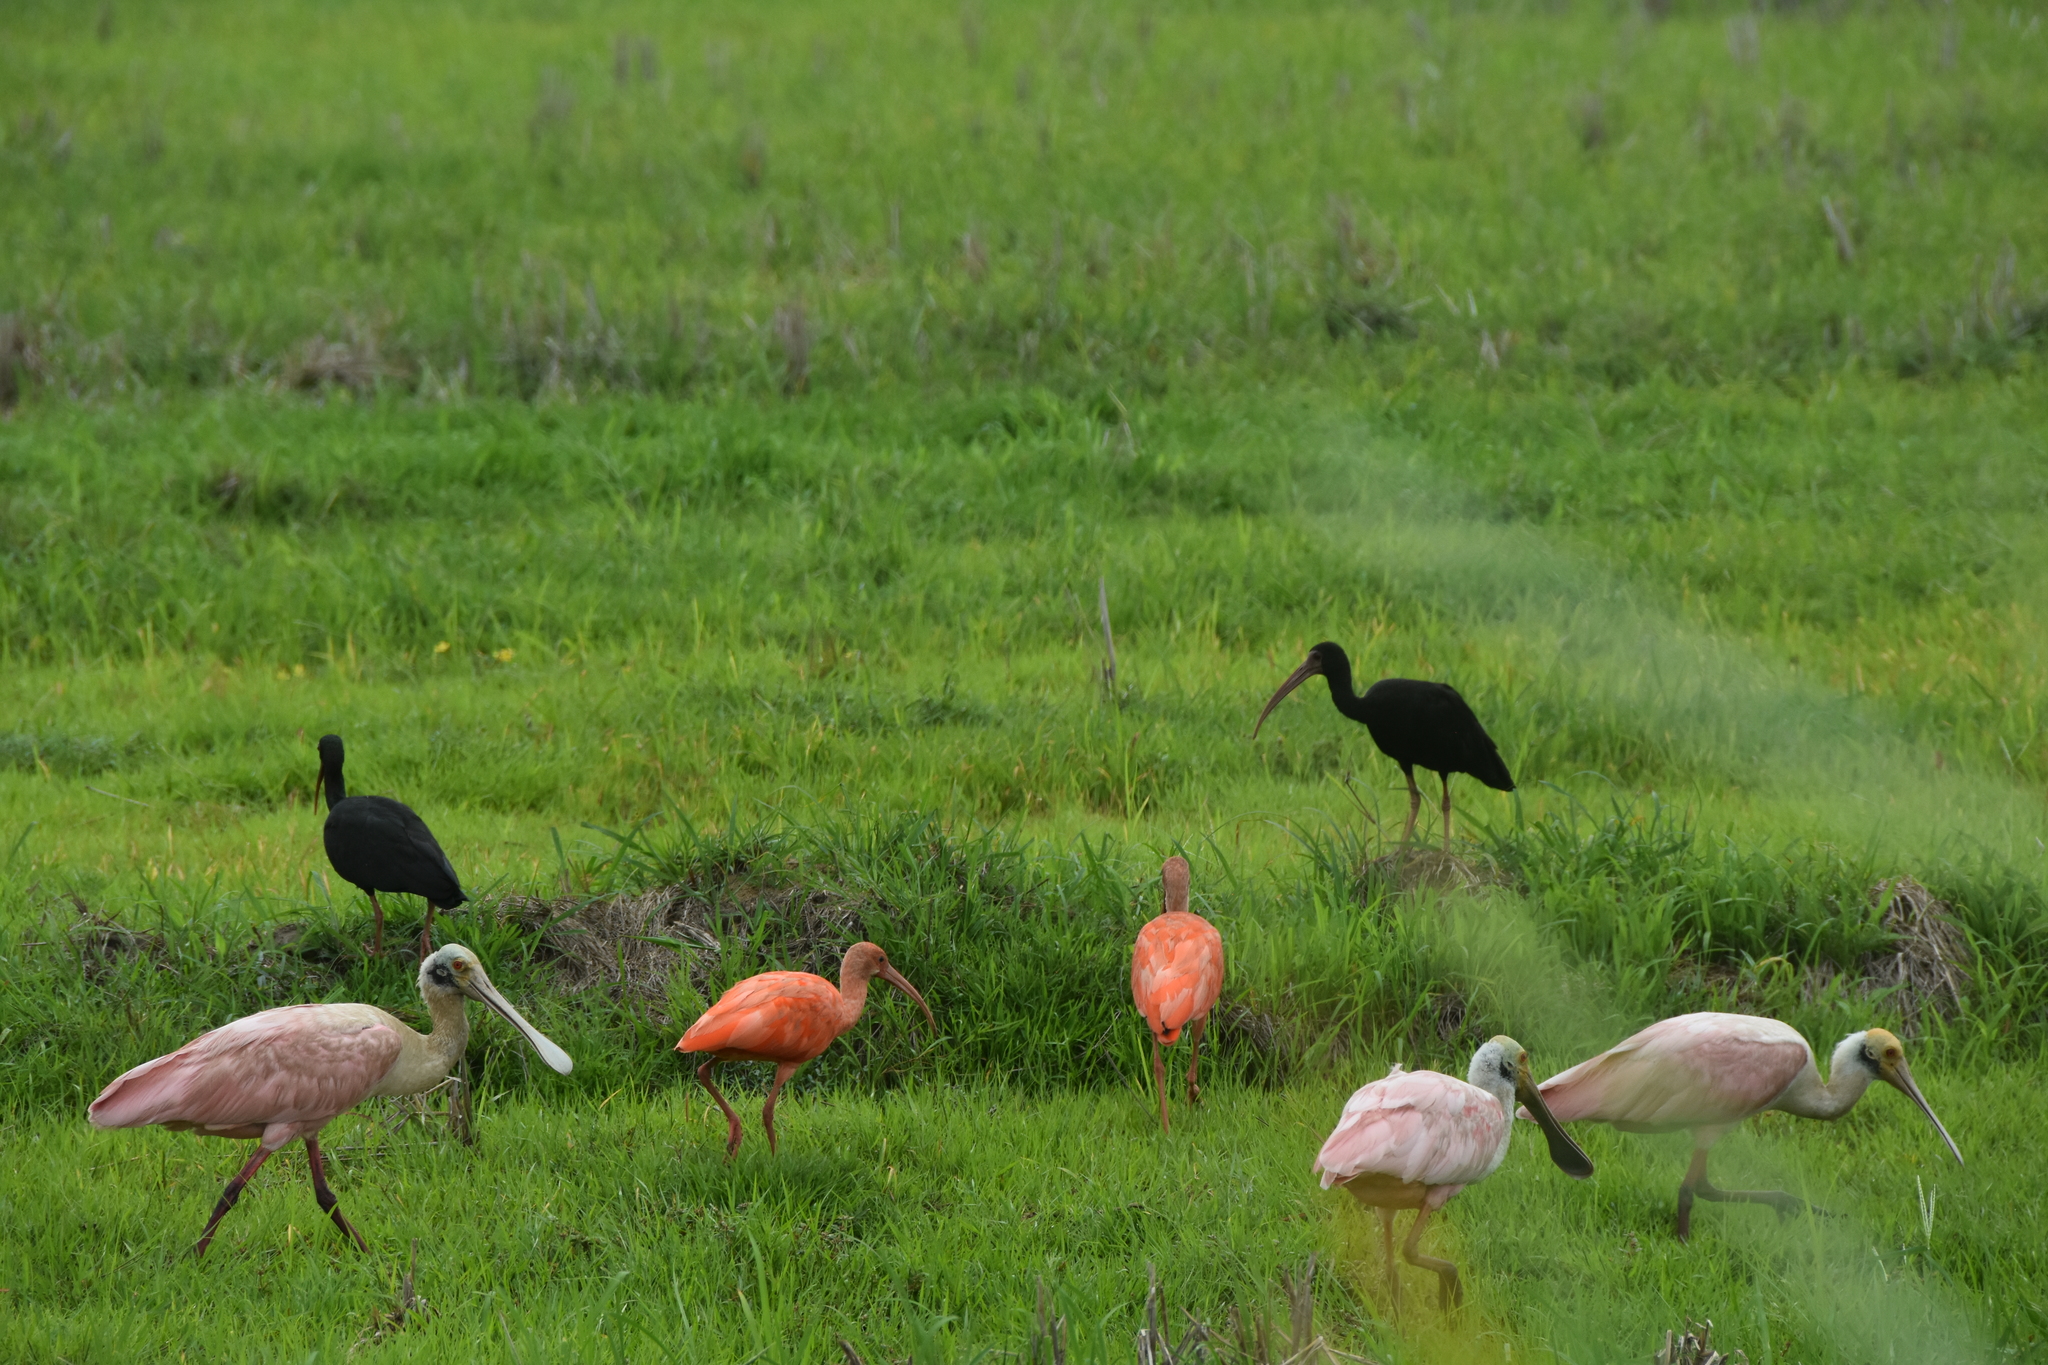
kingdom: Animalia
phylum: Chordata
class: Aves
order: Pelecaniformes
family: Threskiornithidae
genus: Phimosus
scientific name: Phimosus infuscatus
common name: Bare-faced ibis
